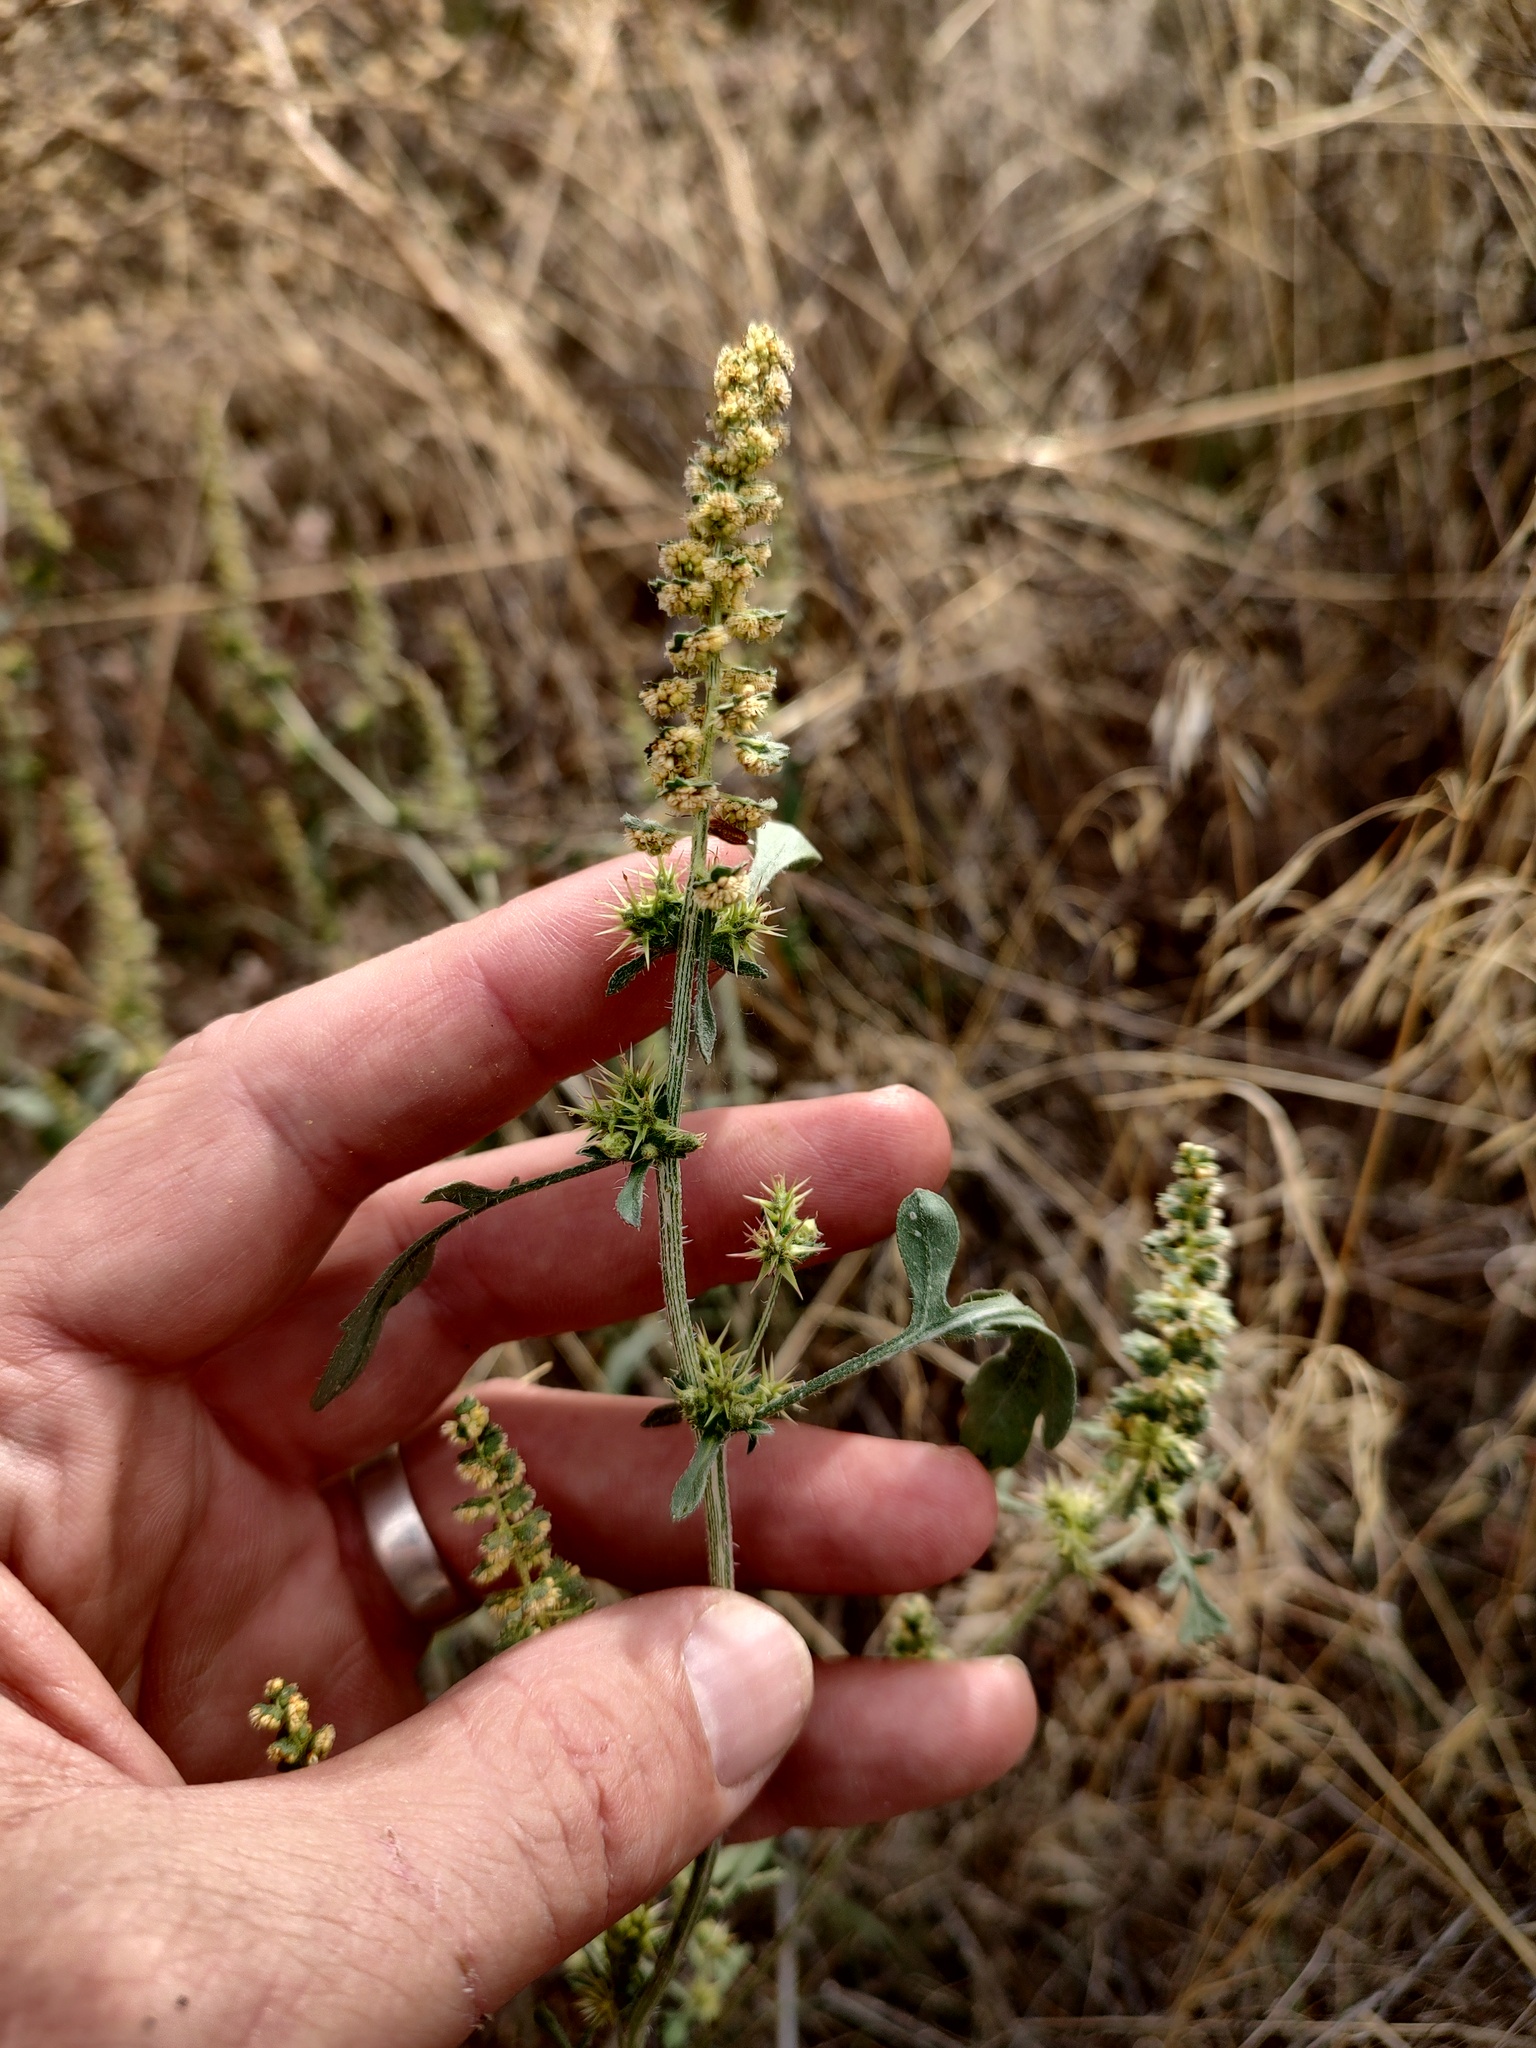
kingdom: Plantae
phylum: Tracheophyta
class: Magnoliopsida
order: Asterales
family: Asteraceae
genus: Ambrosia
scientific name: Ambrosia acanthicarpa
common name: Hooker's bur ragweed
